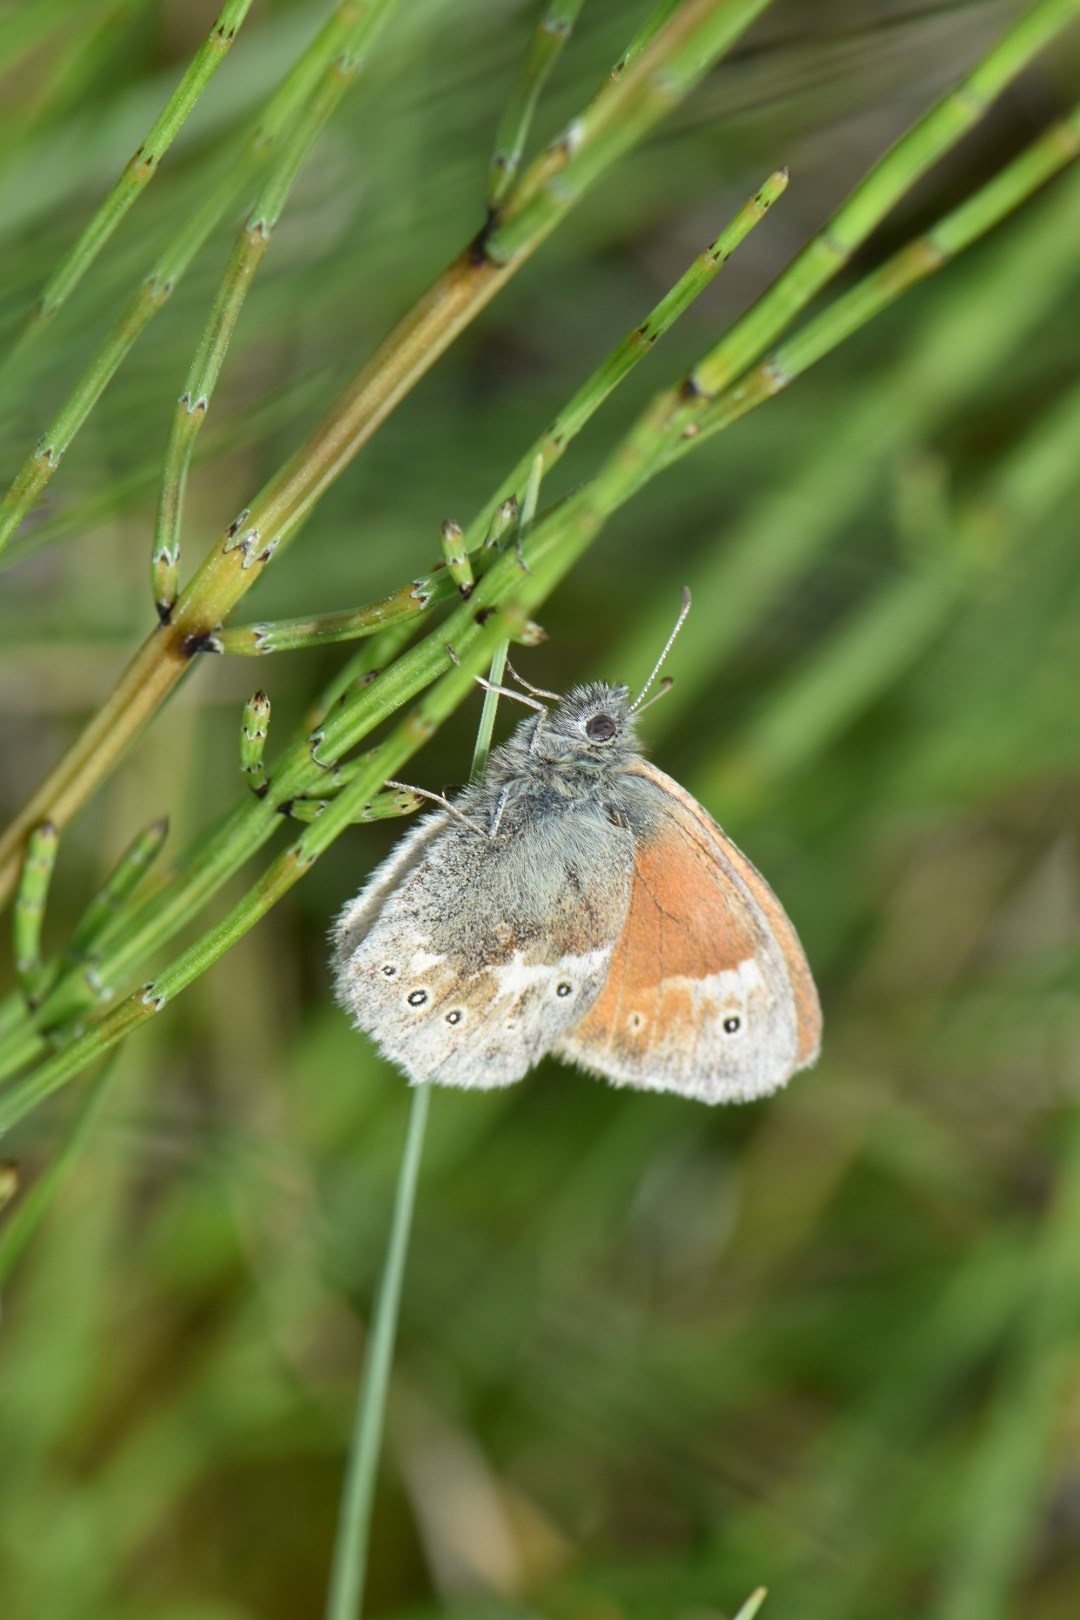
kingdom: Animalia
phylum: Arthropoda
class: Insecta
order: Lepidoptera
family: Nymphalidae
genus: Coenonympha
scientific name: Coenonympha tullia
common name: Large heath
